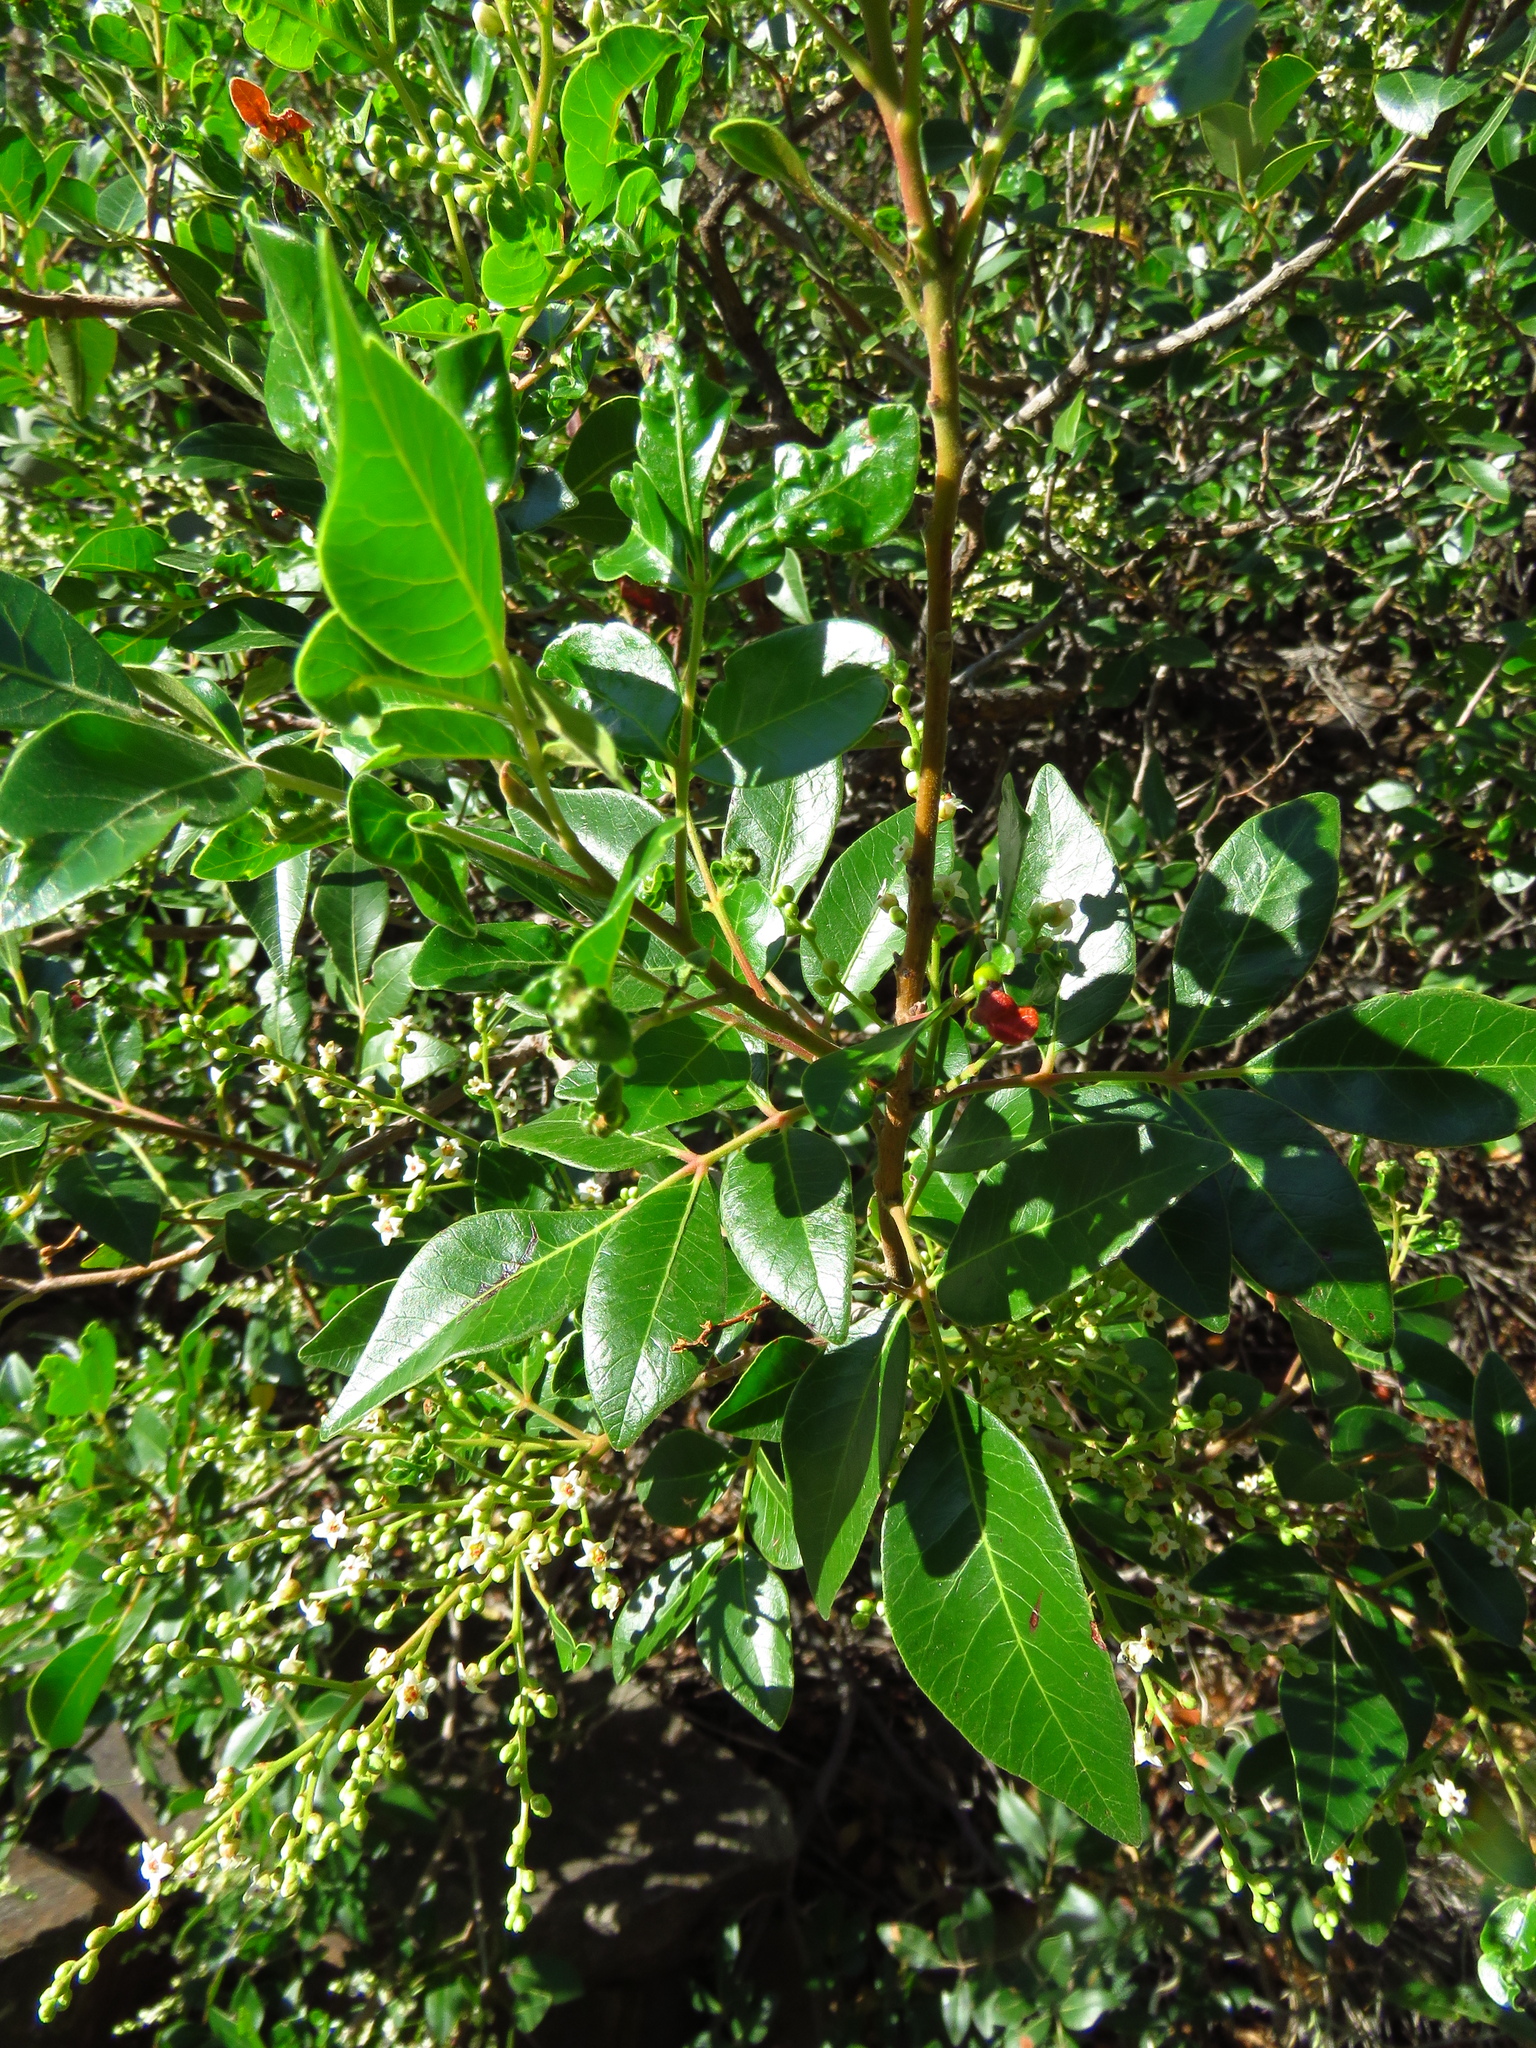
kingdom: Plantae
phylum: Tracheophyta
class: Magnoliopsida
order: Sapindales
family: Anacardiaceae
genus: Rhus
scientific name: Rhus virens
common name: Evergreen sumac
